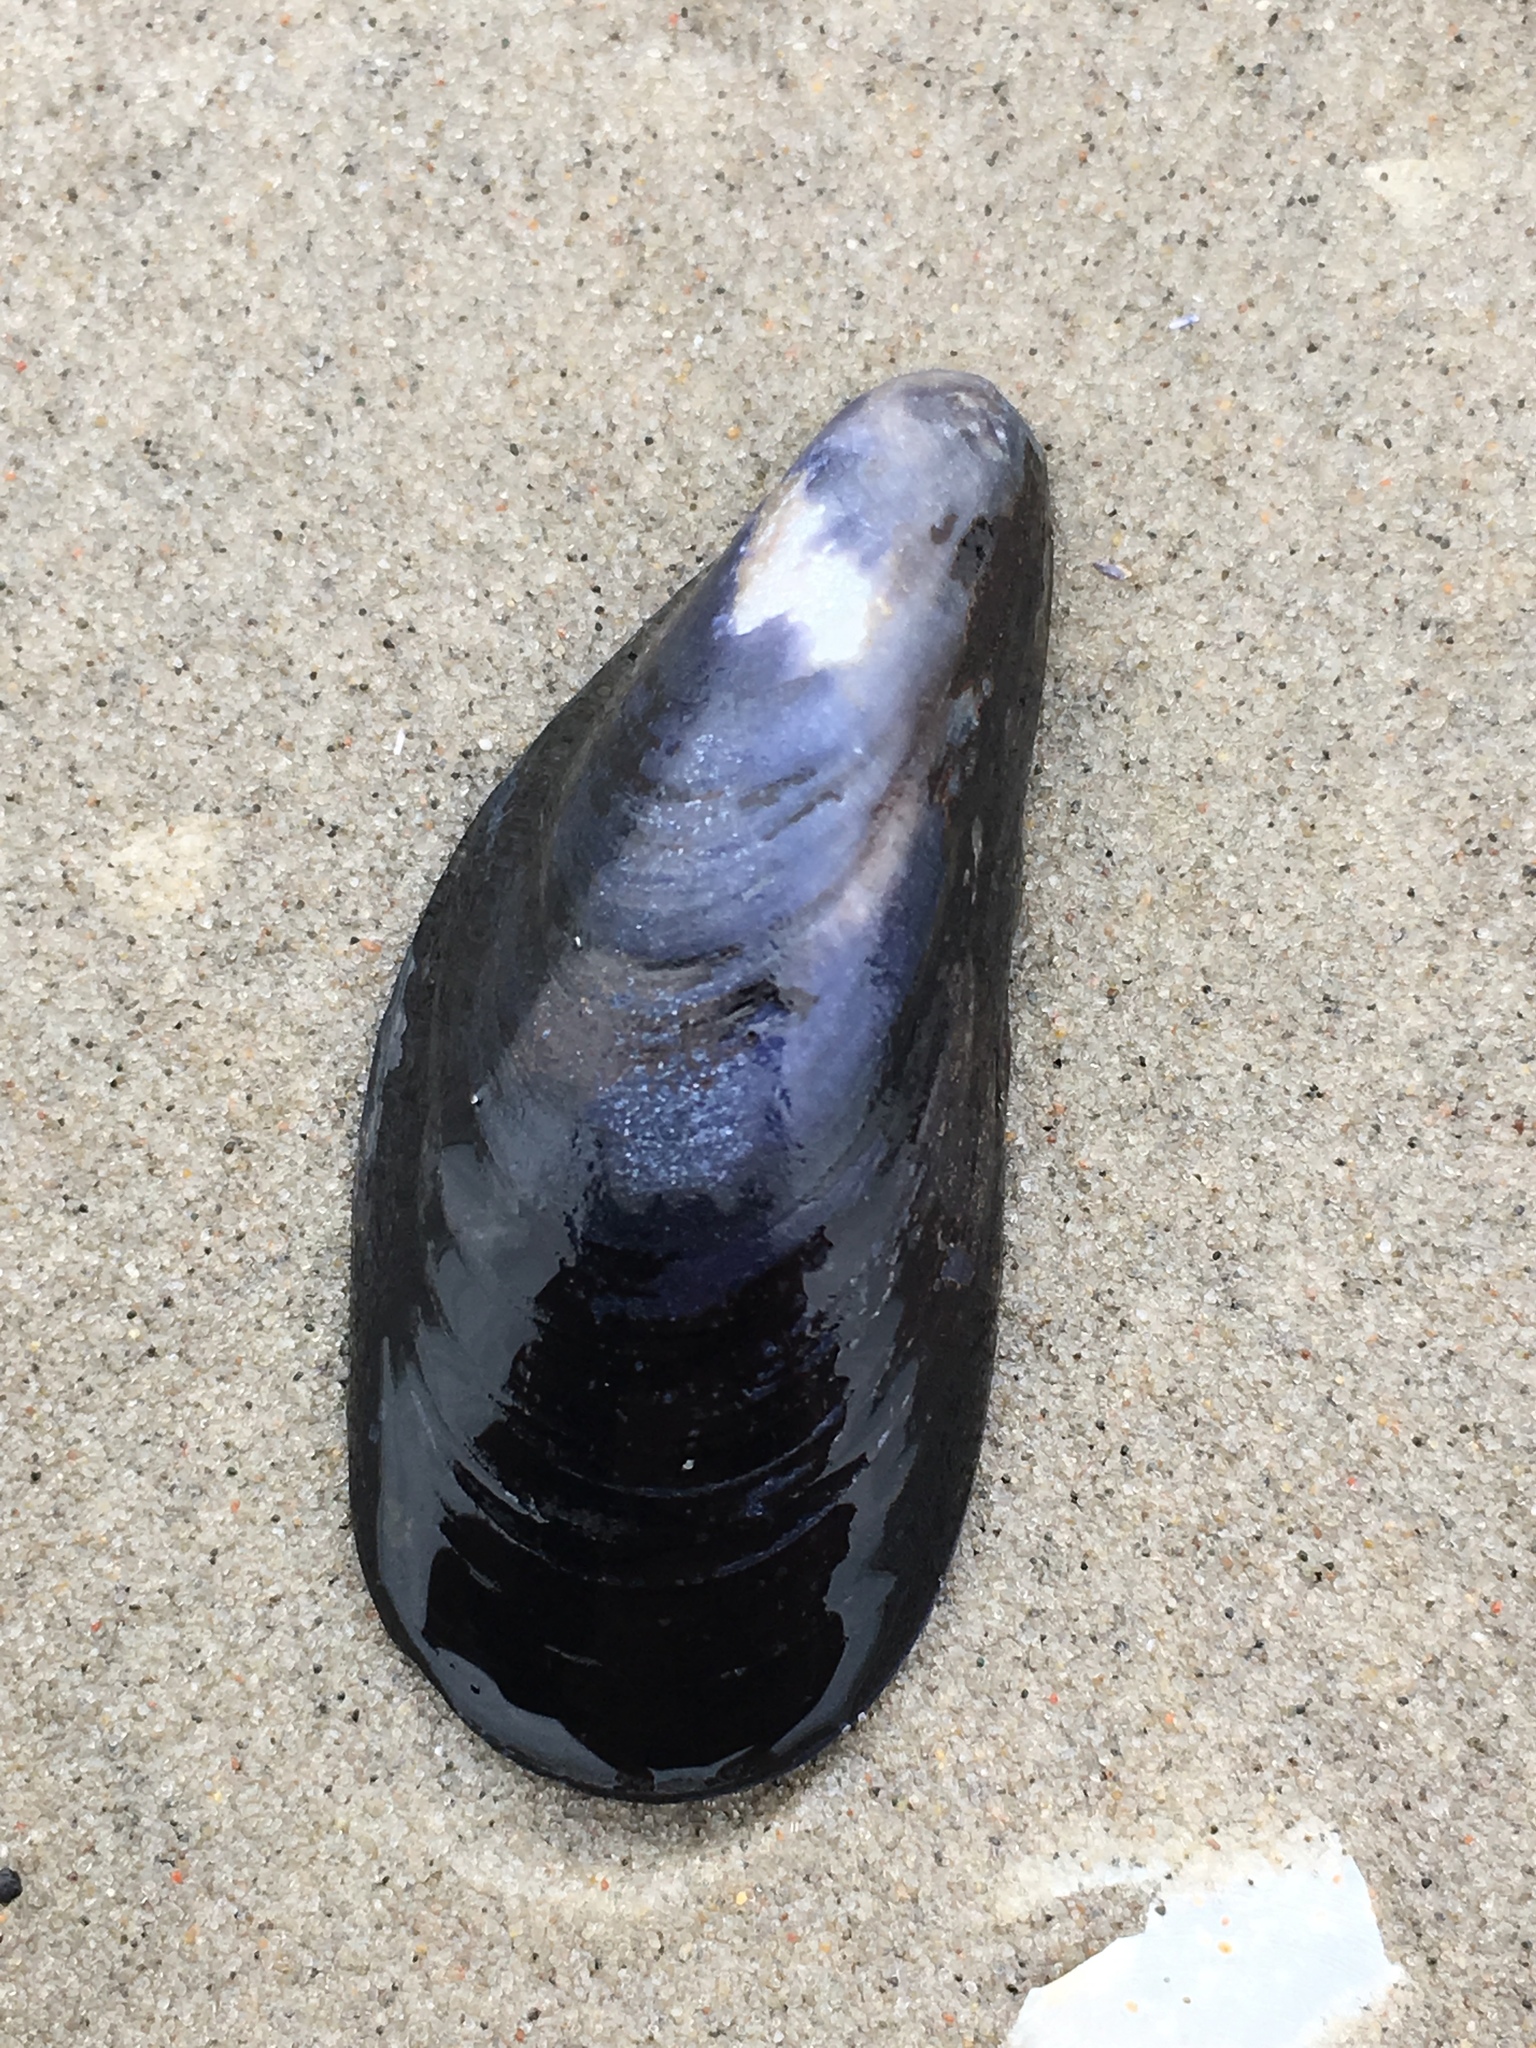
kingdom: Animalia
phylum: Mollusca
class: Bivalvia
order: Mytilida
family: Mytilidae
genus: Mytilus
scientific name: Mytilus edulis
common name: Blue mussel
